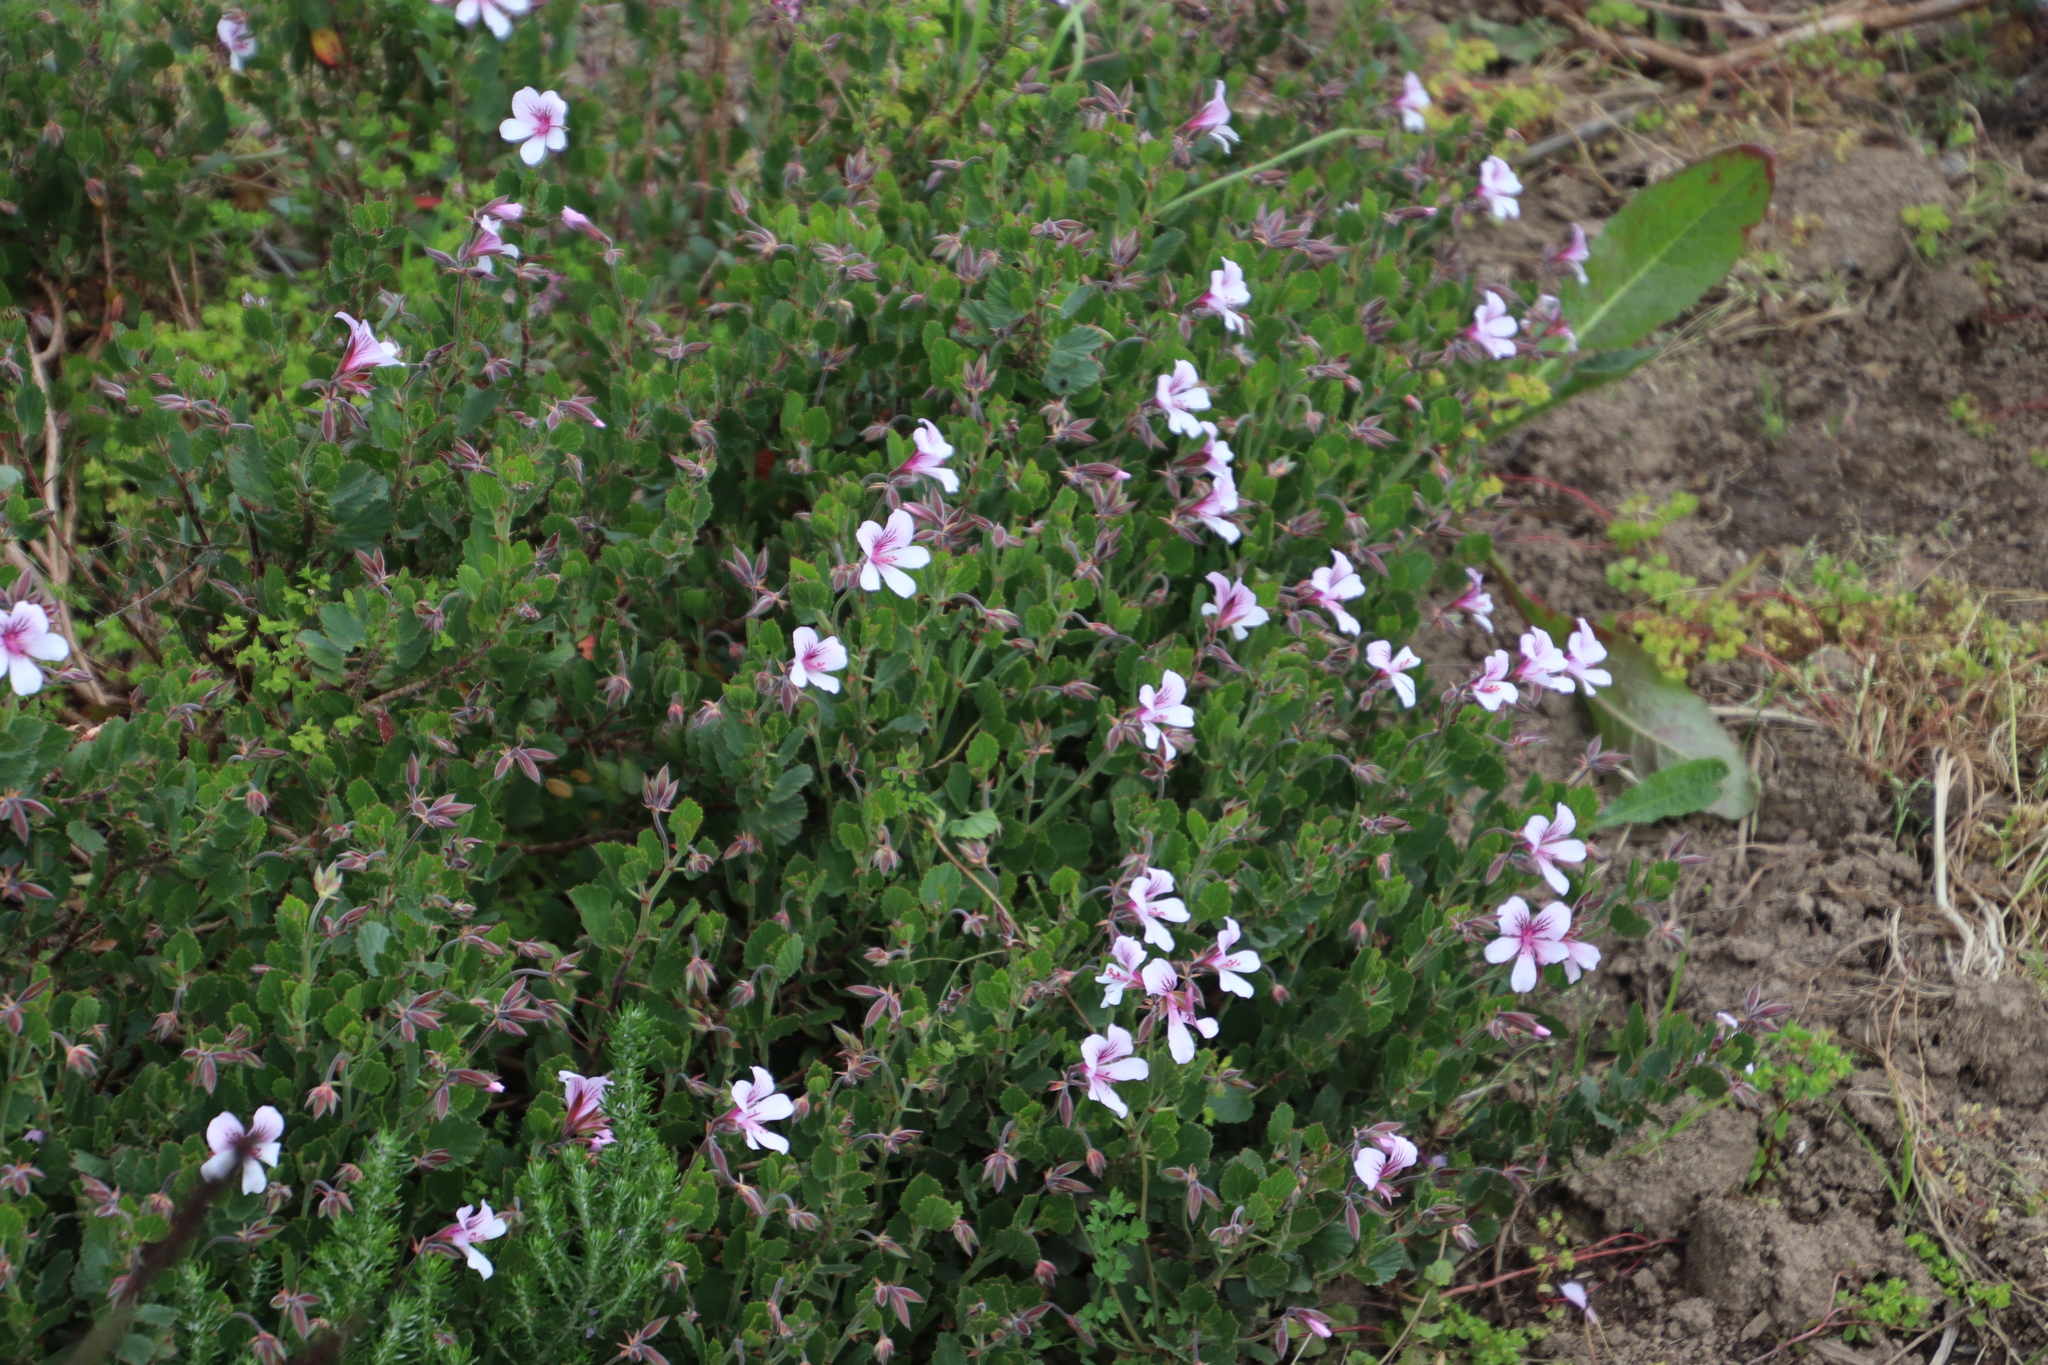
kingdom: Plantae
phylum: Tracheophyta
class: Magnoliopsida
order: Geraniales
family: Geraniaceae
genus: Pelargonium
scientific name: Pelargonium betulinum
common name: Birch-leaf pelargonium
